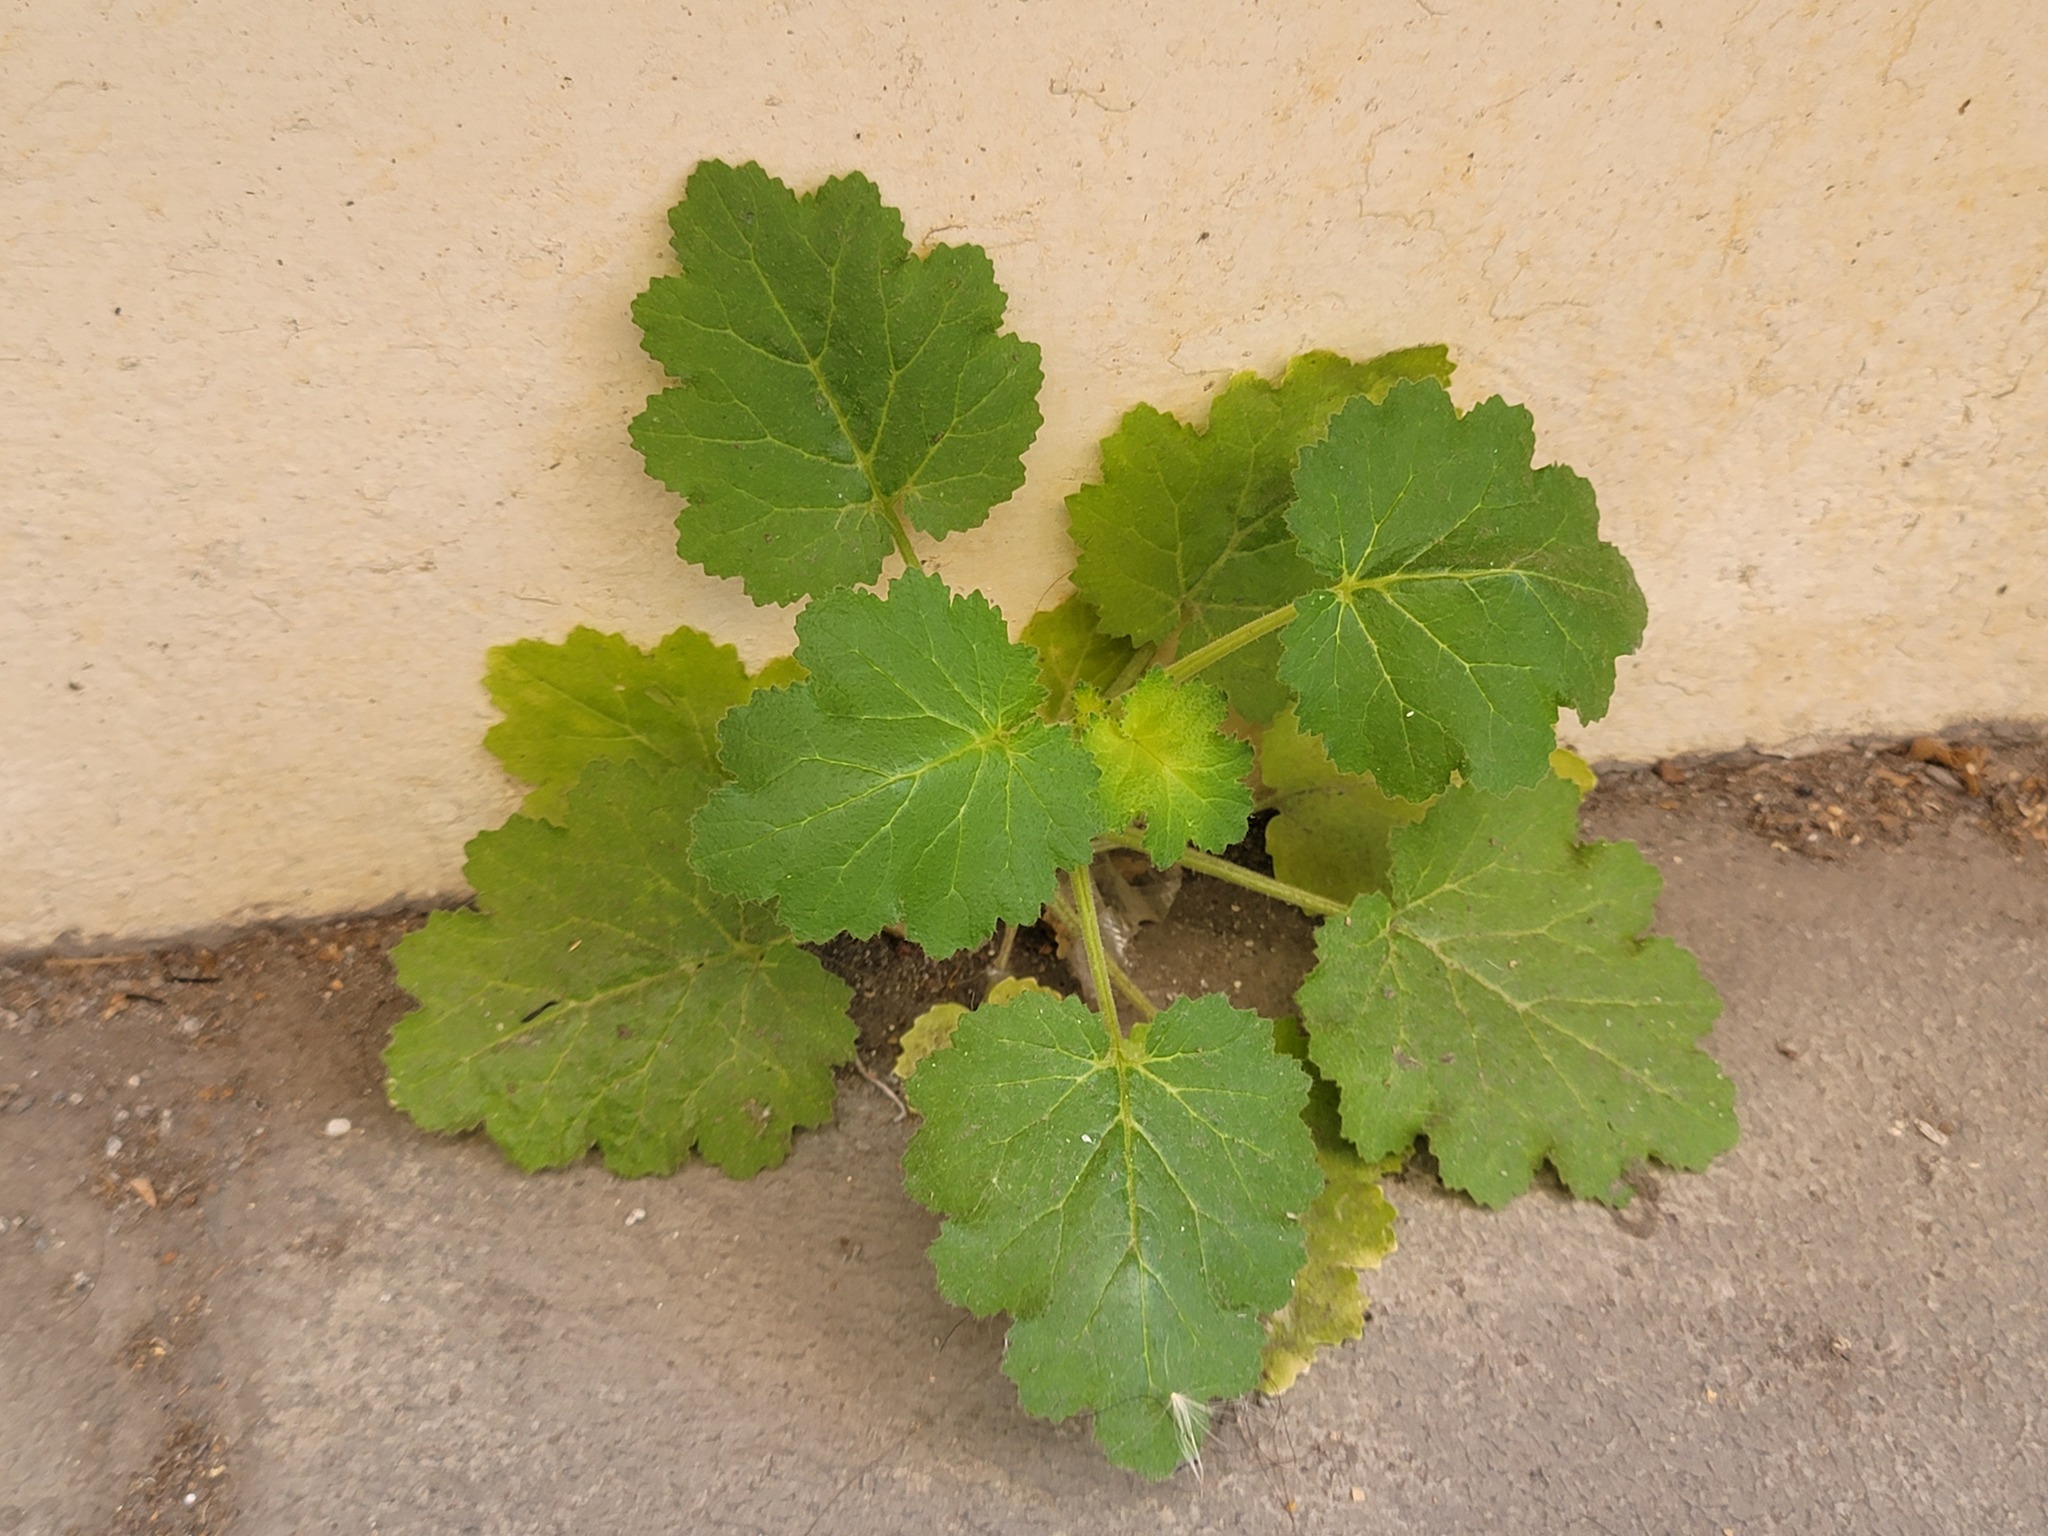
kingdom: Plantae
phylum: Tracheophyta
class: Magnoliopsida
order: Cornales
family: Loasaceae
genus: Eucnide
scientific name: Eucnide lobata
